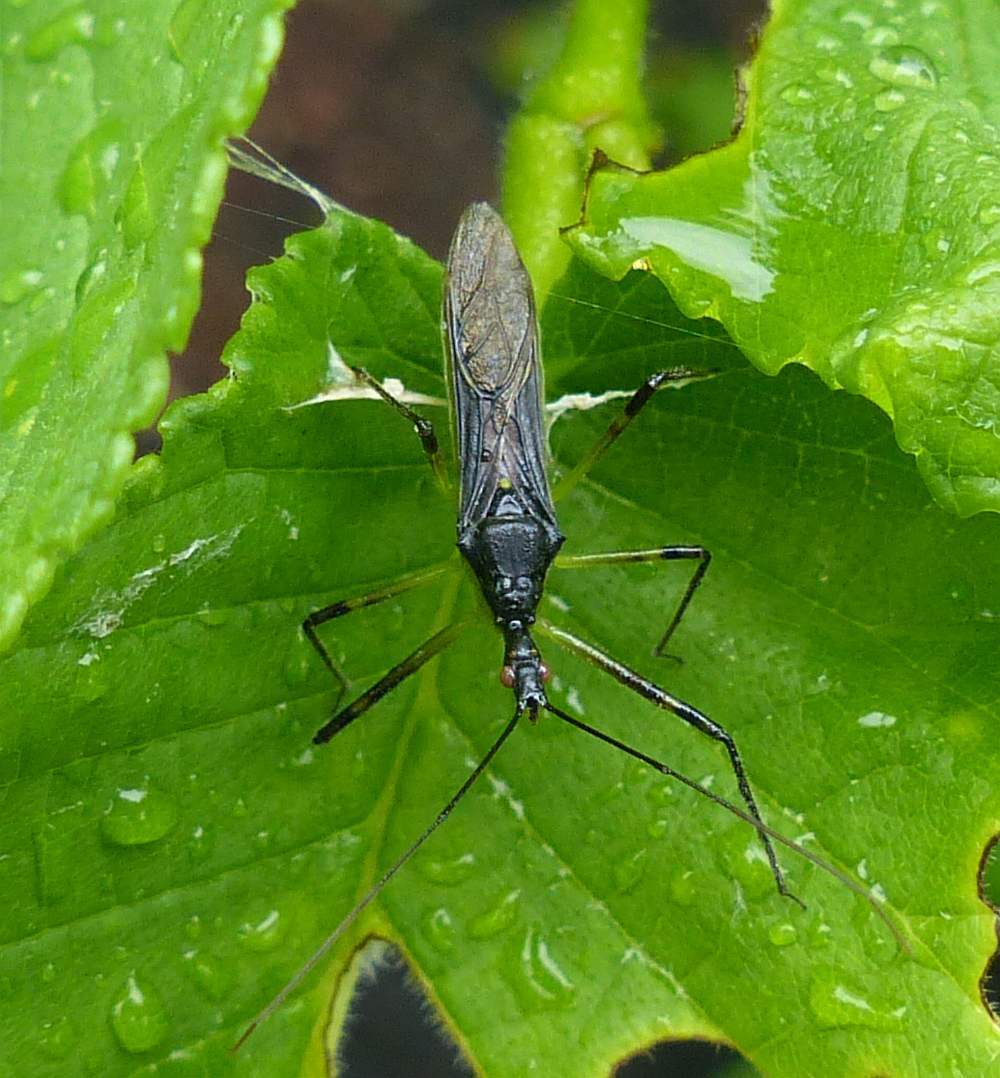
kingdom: Animalia
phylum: Arthropoda
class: Insecta
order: Hemiptera
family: Reduviidae
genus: Zelus
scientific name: Zelus luridus
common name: Pale green assassin bug
